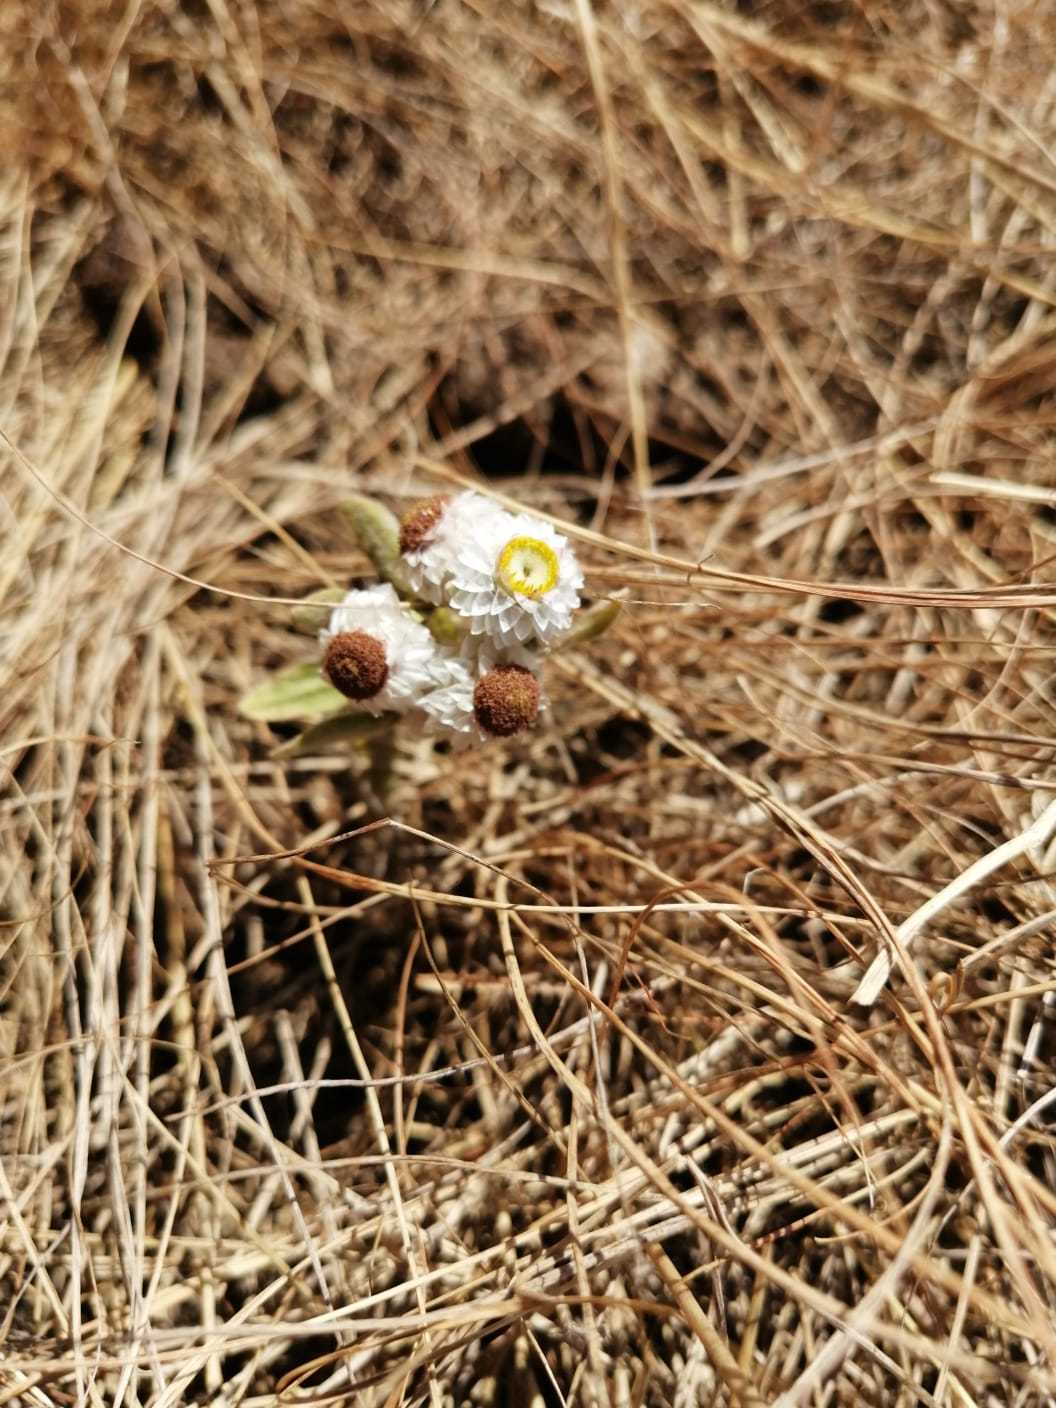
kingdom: Plantae
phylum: Tracheophyta
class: Magnoliopsida
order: Asterales
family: Asteraceae
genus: Helichrysum
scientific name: Helichrysum argyrosphaerum
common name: Wild everlasting
